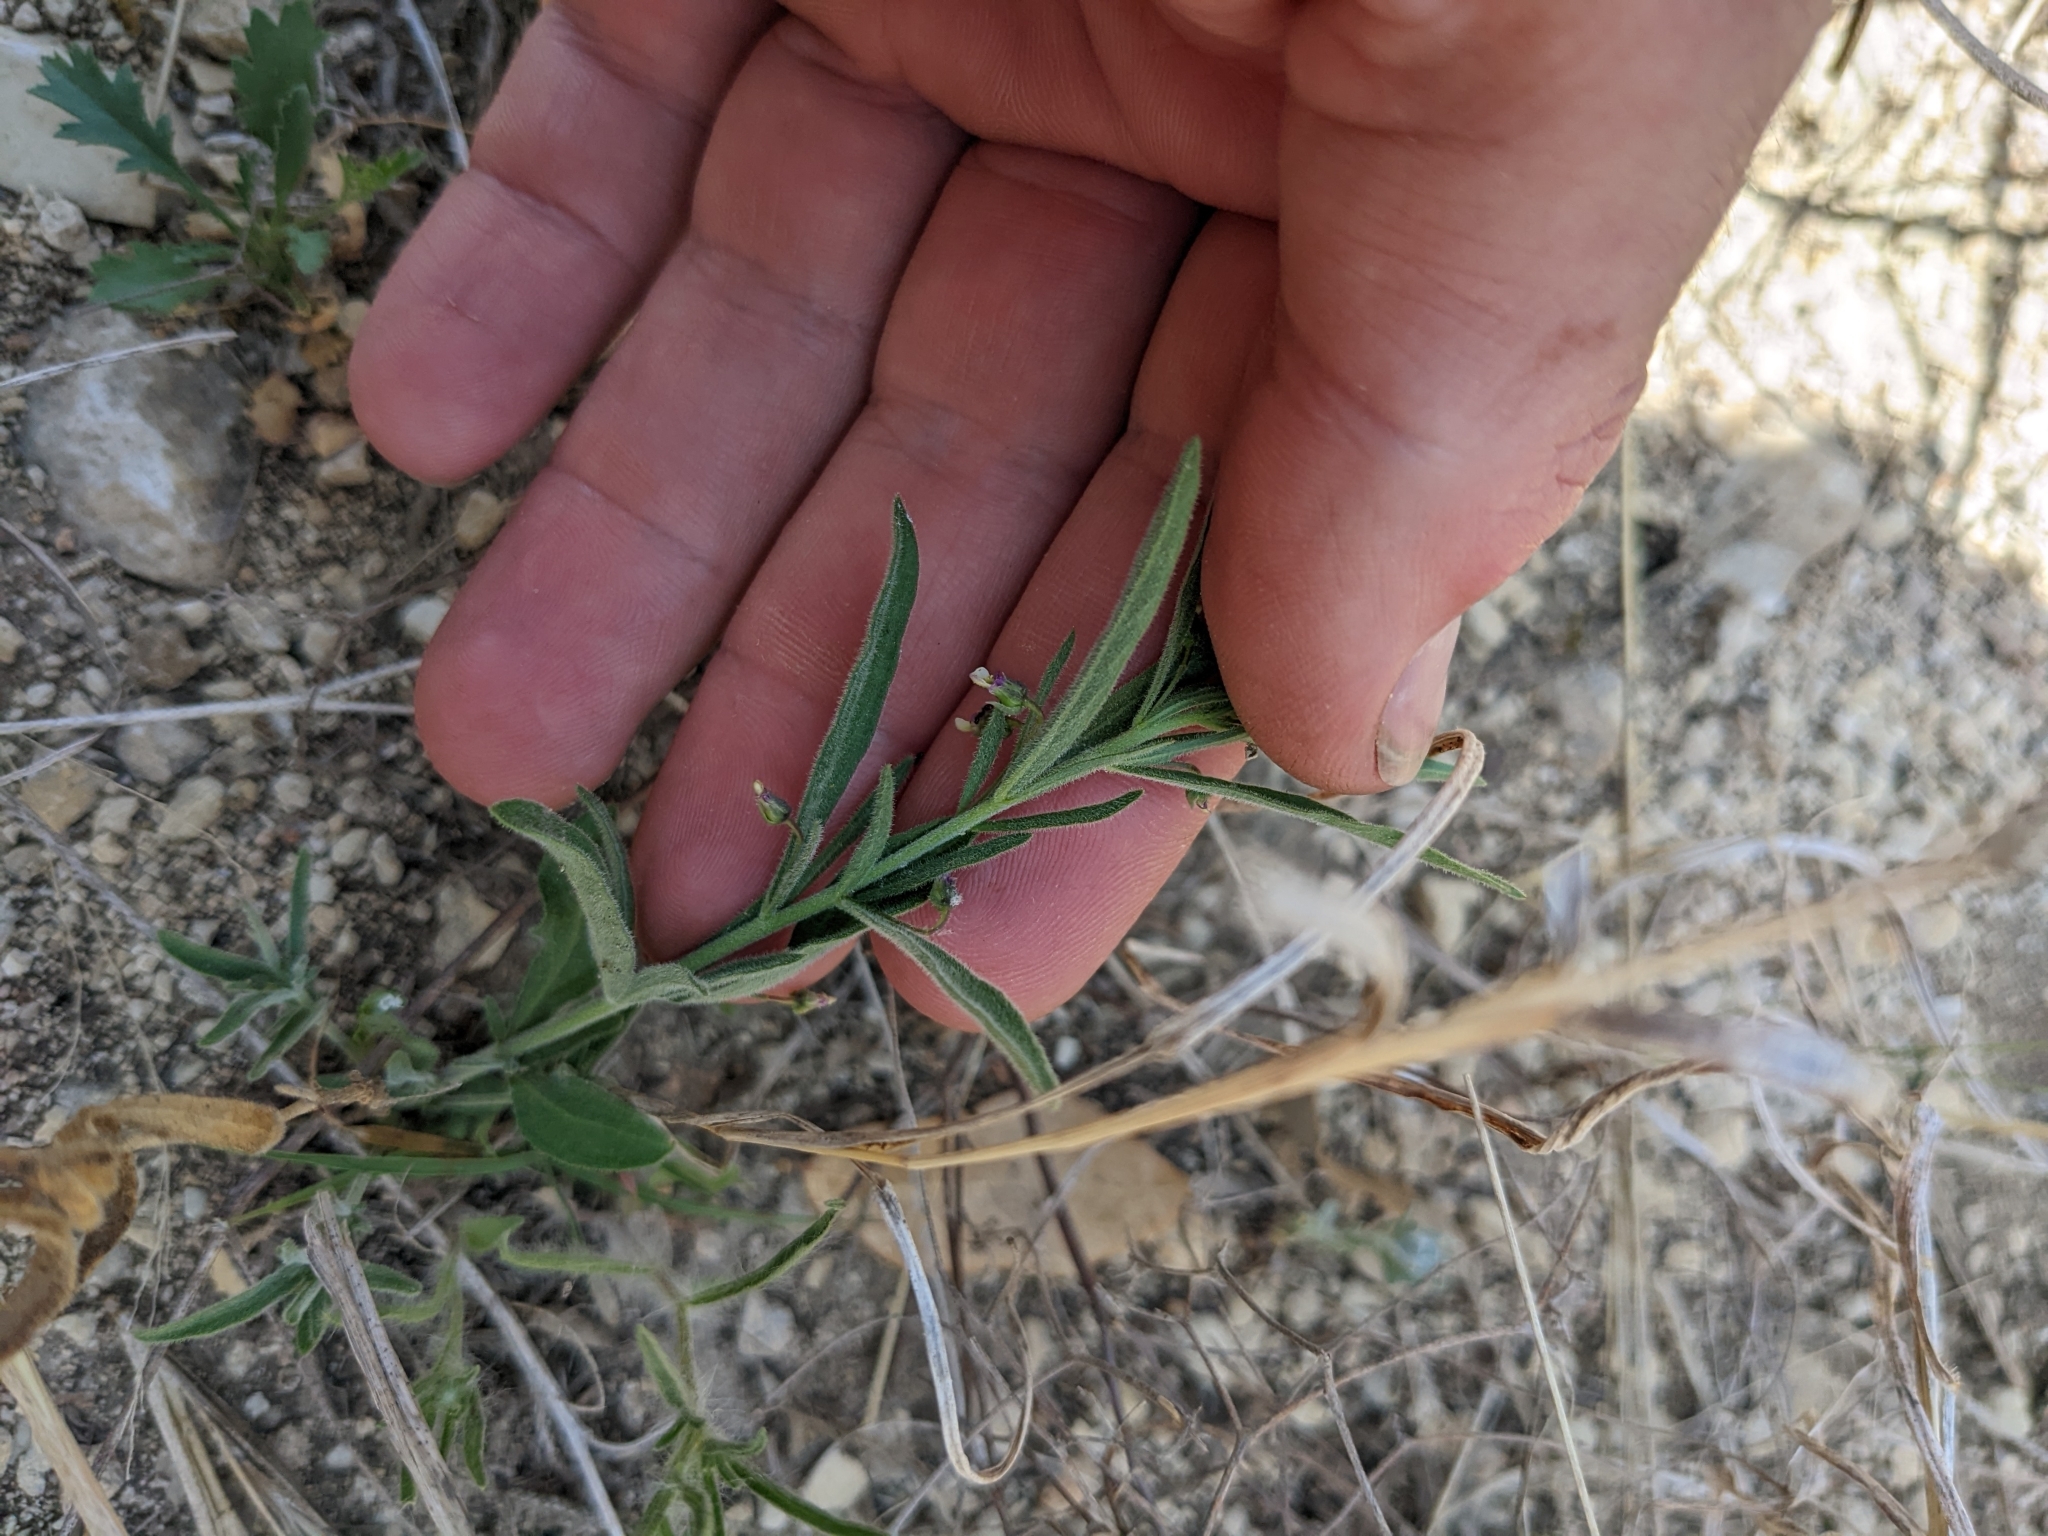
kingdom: Plantae
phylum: Tracheophyta
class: Magnoliopsida
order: Malpighiales
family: Violaceae
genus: Pombalia
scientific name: Pombalia verticillata
